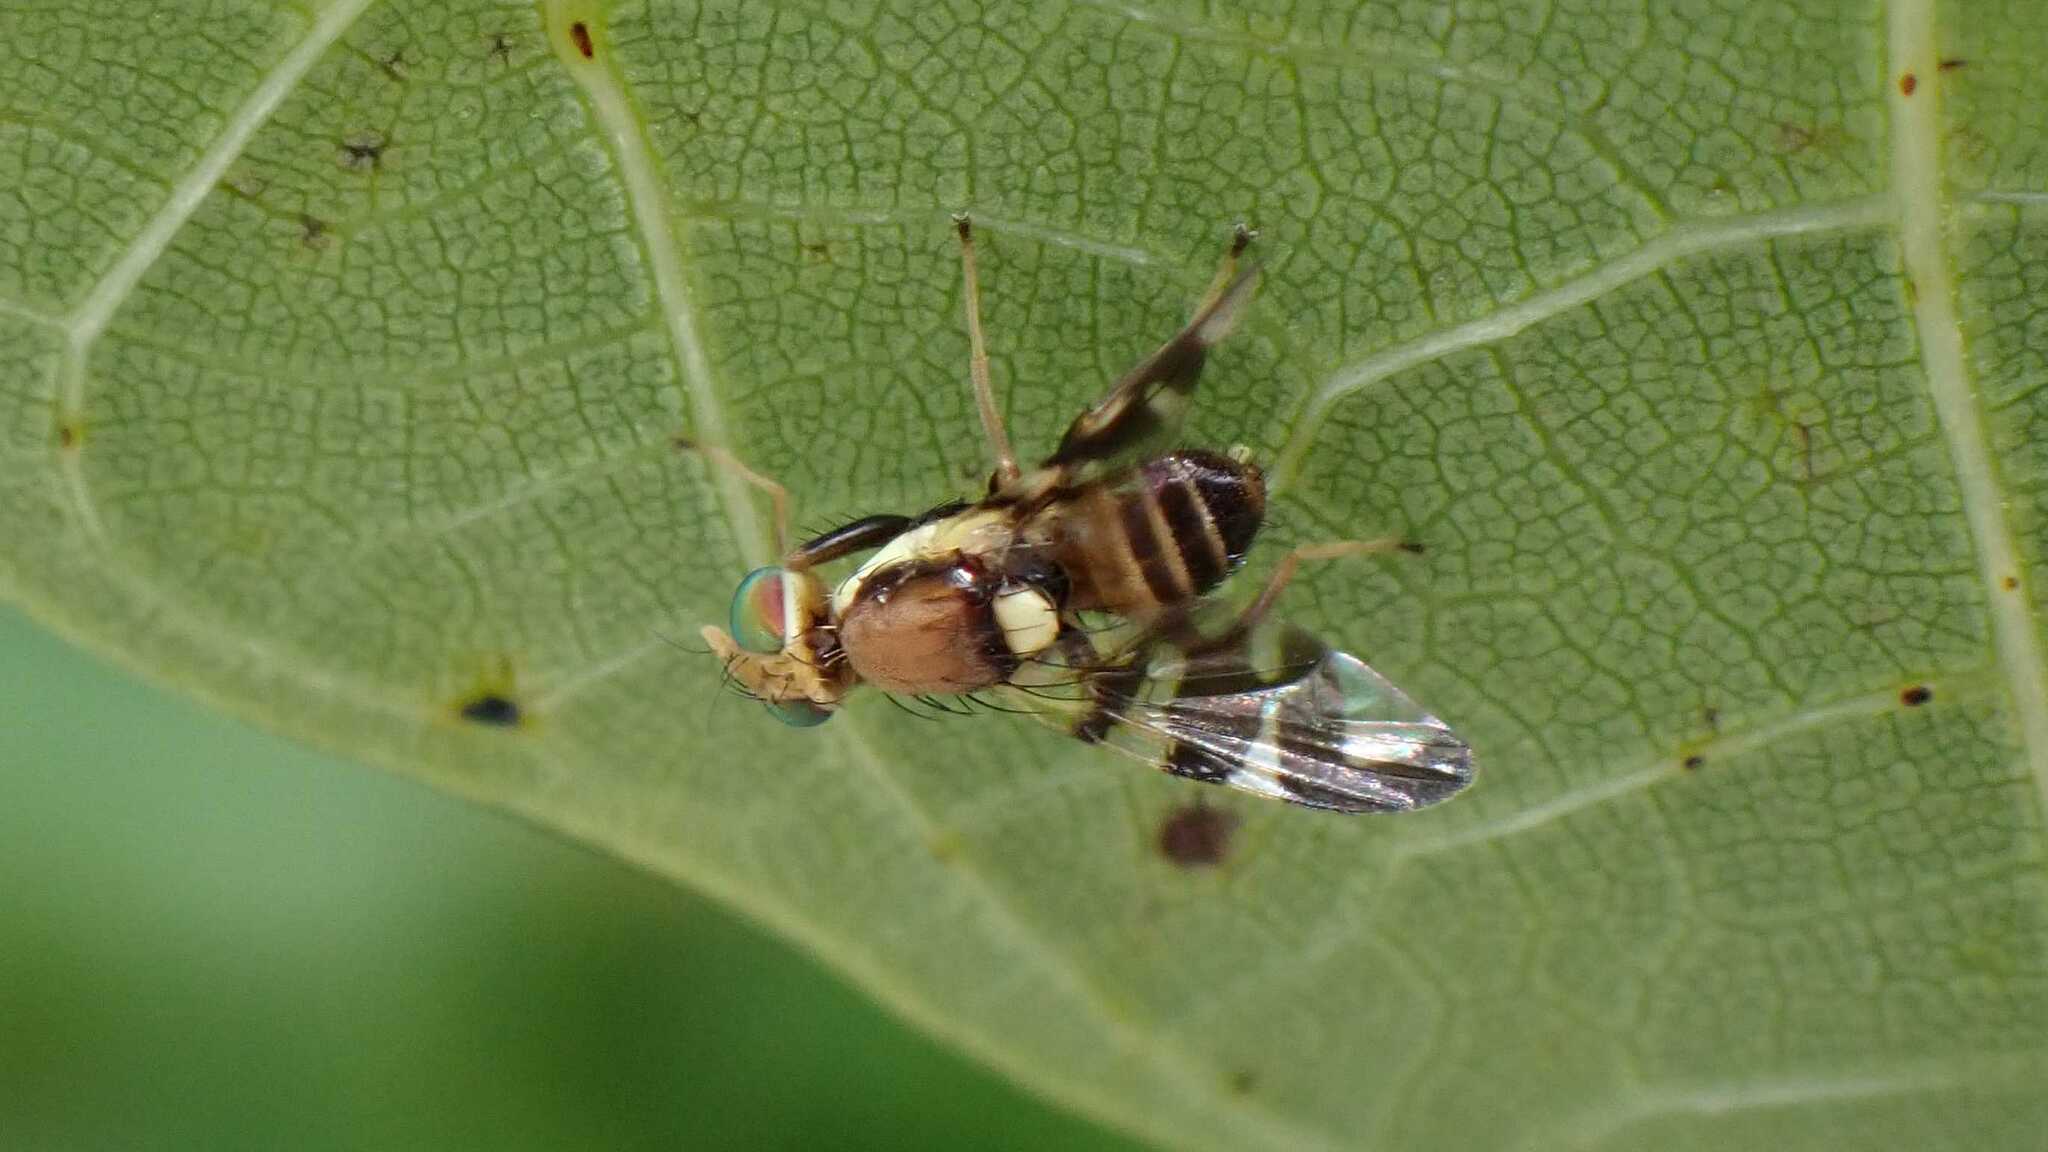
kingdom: Animalia
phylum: Arthropoda
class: Insecta
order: Diptera
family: Tephritidae
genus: Rhagoletis
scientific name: Rhagoletis completa
